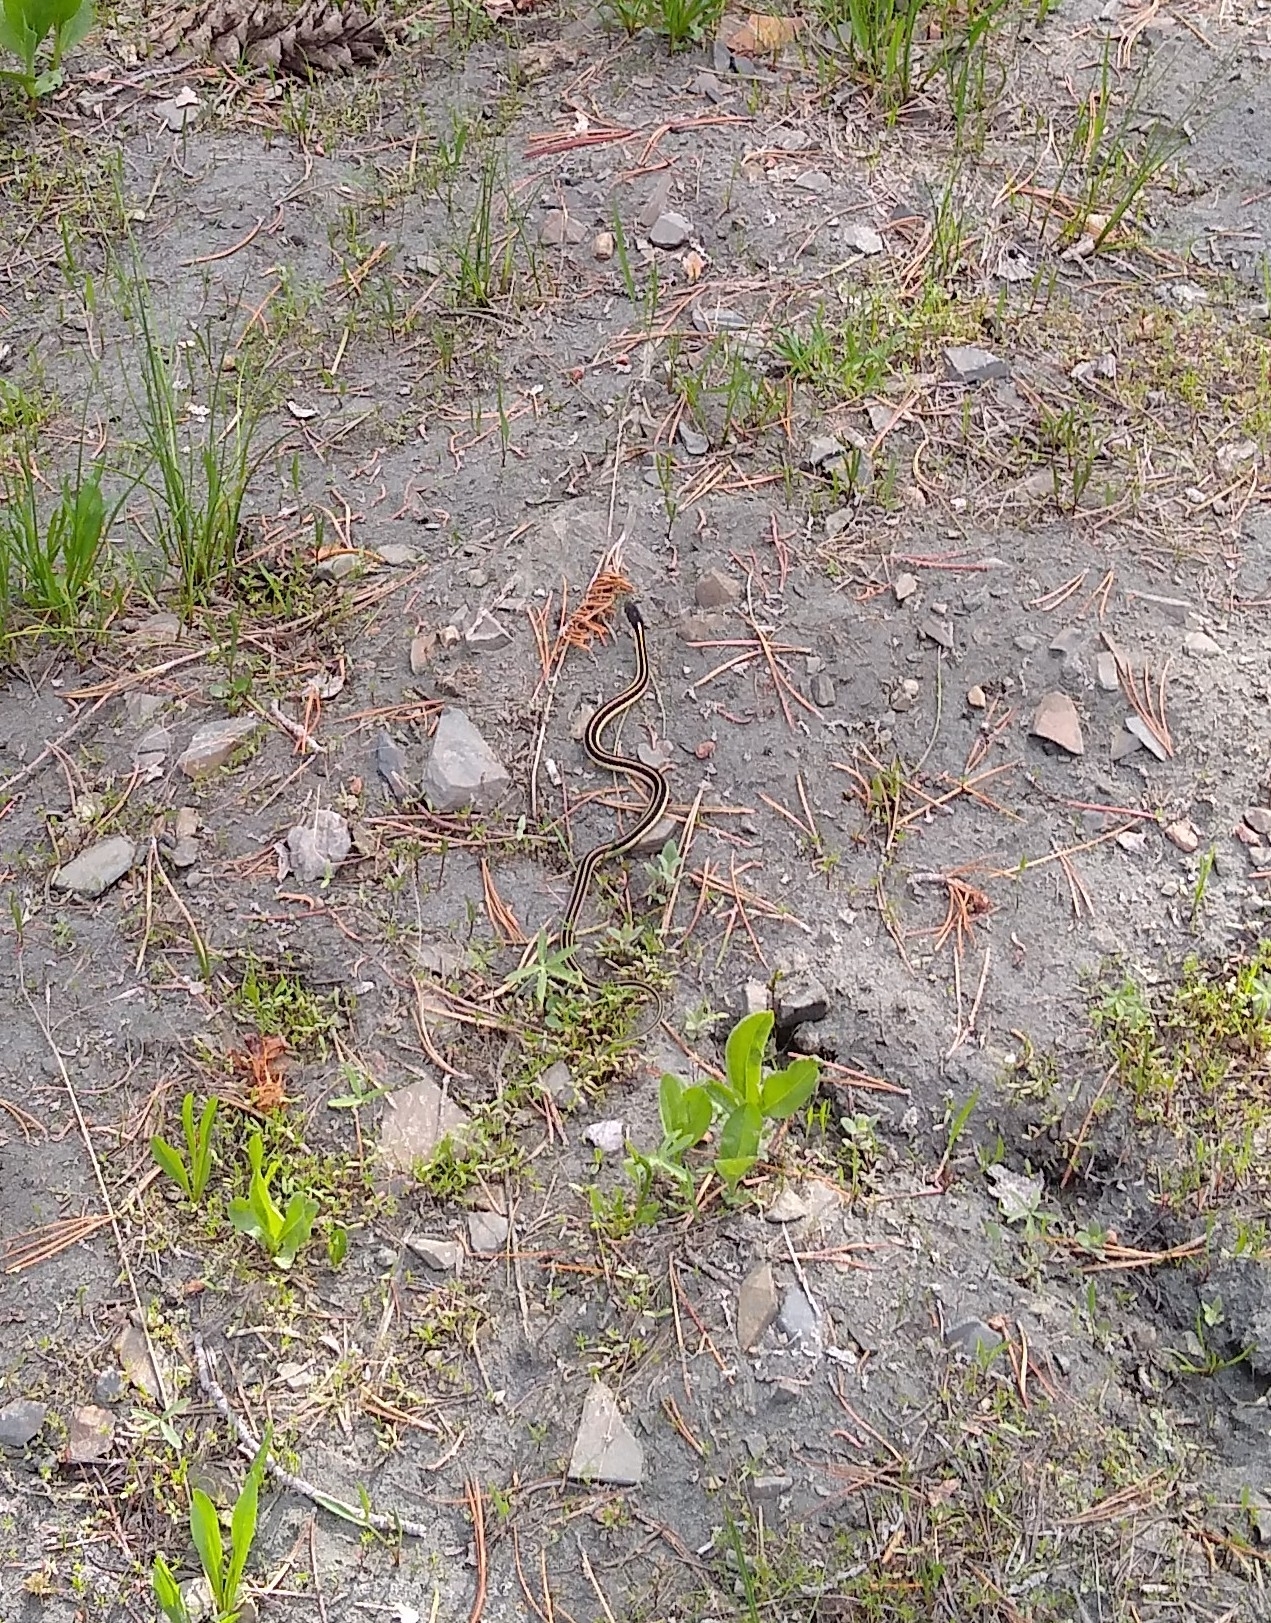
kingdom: Animalia
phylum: Chordata
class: Squamata
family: Colubridae
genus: Thamnophis
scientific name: Thamnophis elegans
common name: Western terrestrial garter snake
